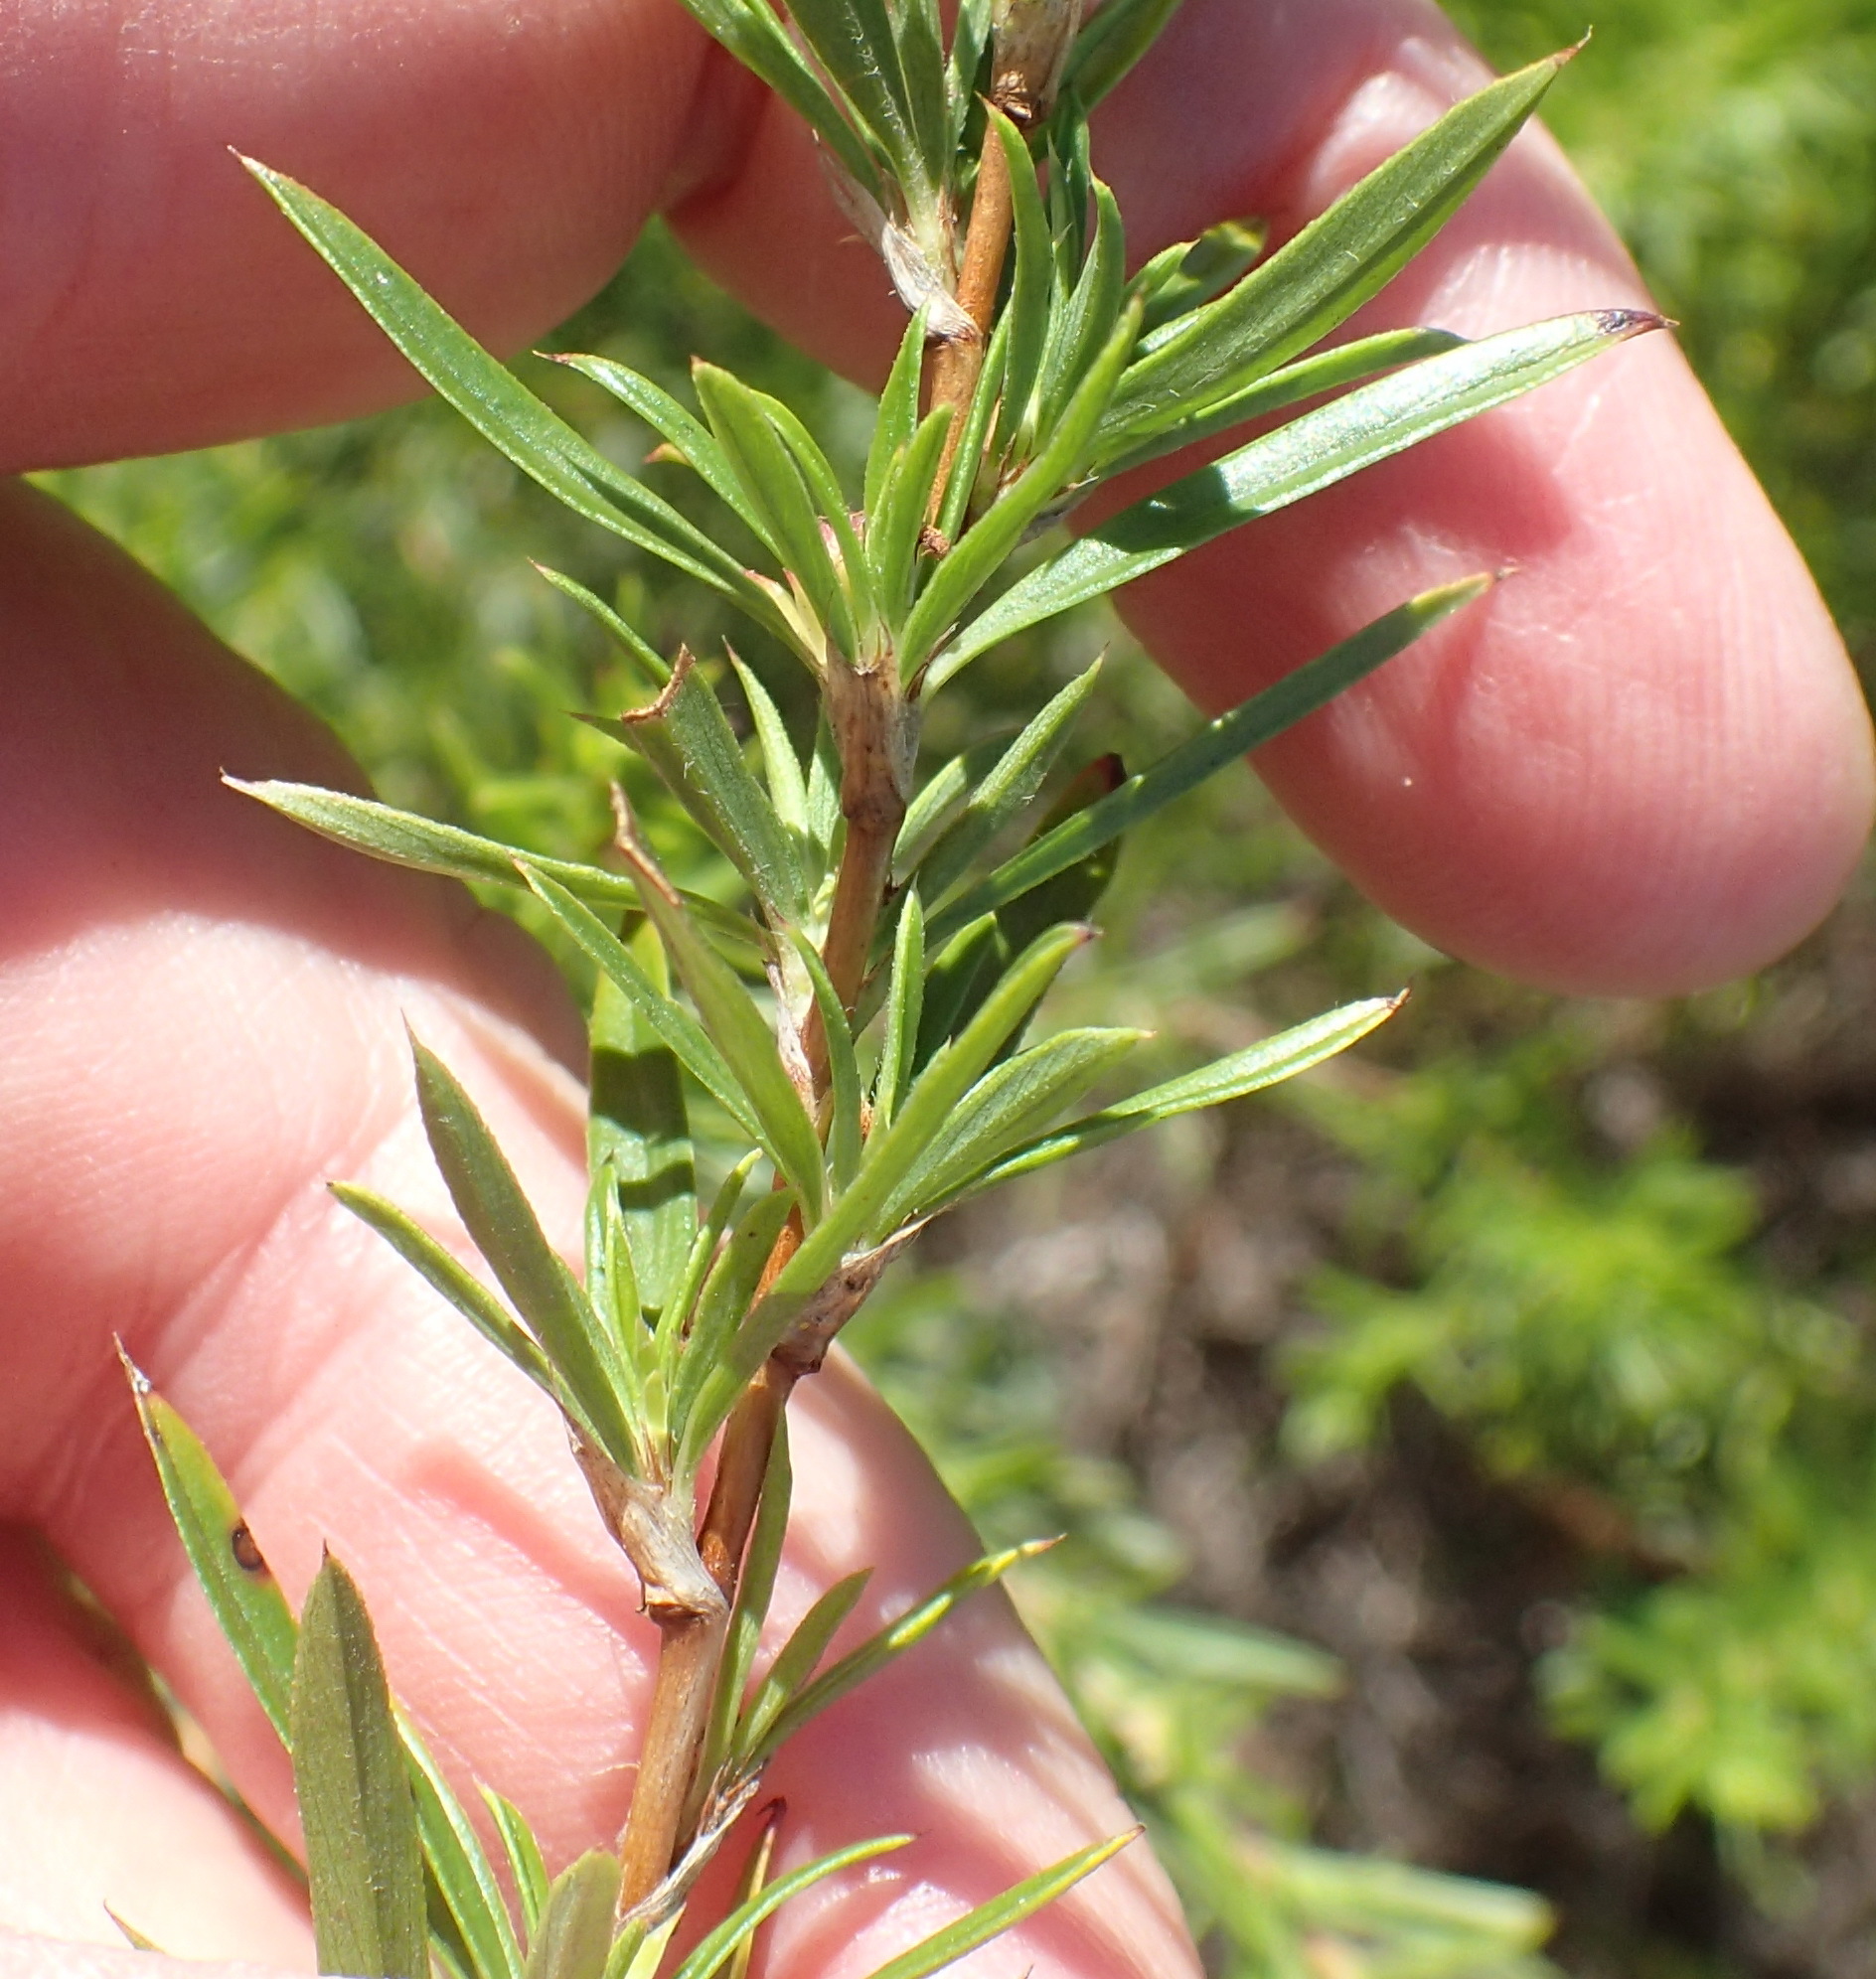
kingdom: Plantae
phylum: Tracheophyta
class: Magnoliopsida
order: Rosales
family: Rosaceae
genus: Cliffortia
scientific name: Cliffortia strobilifera
